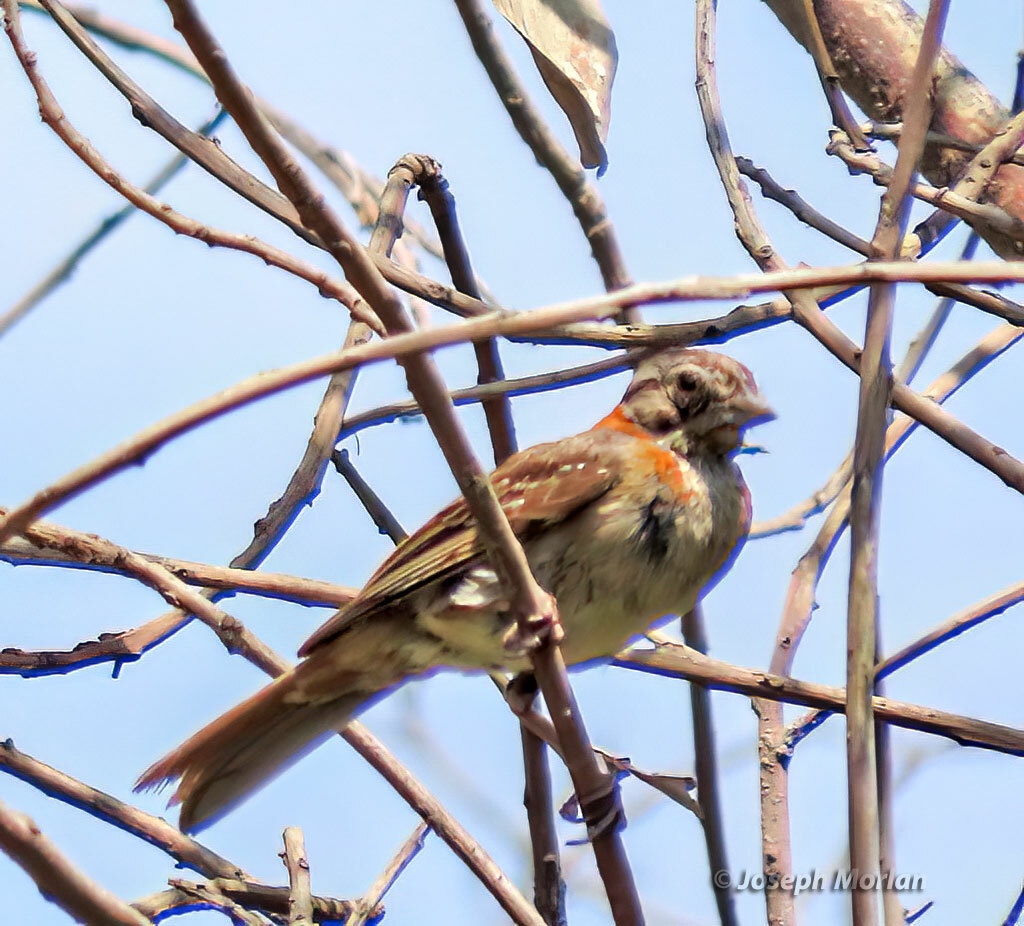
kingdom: Animalia
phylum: Chordata
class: Aves
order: Passeriformes
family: Passerellidae
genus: Zonotrichia
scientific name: Zonotrichia capensis
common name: Rufous-collared sparrow
